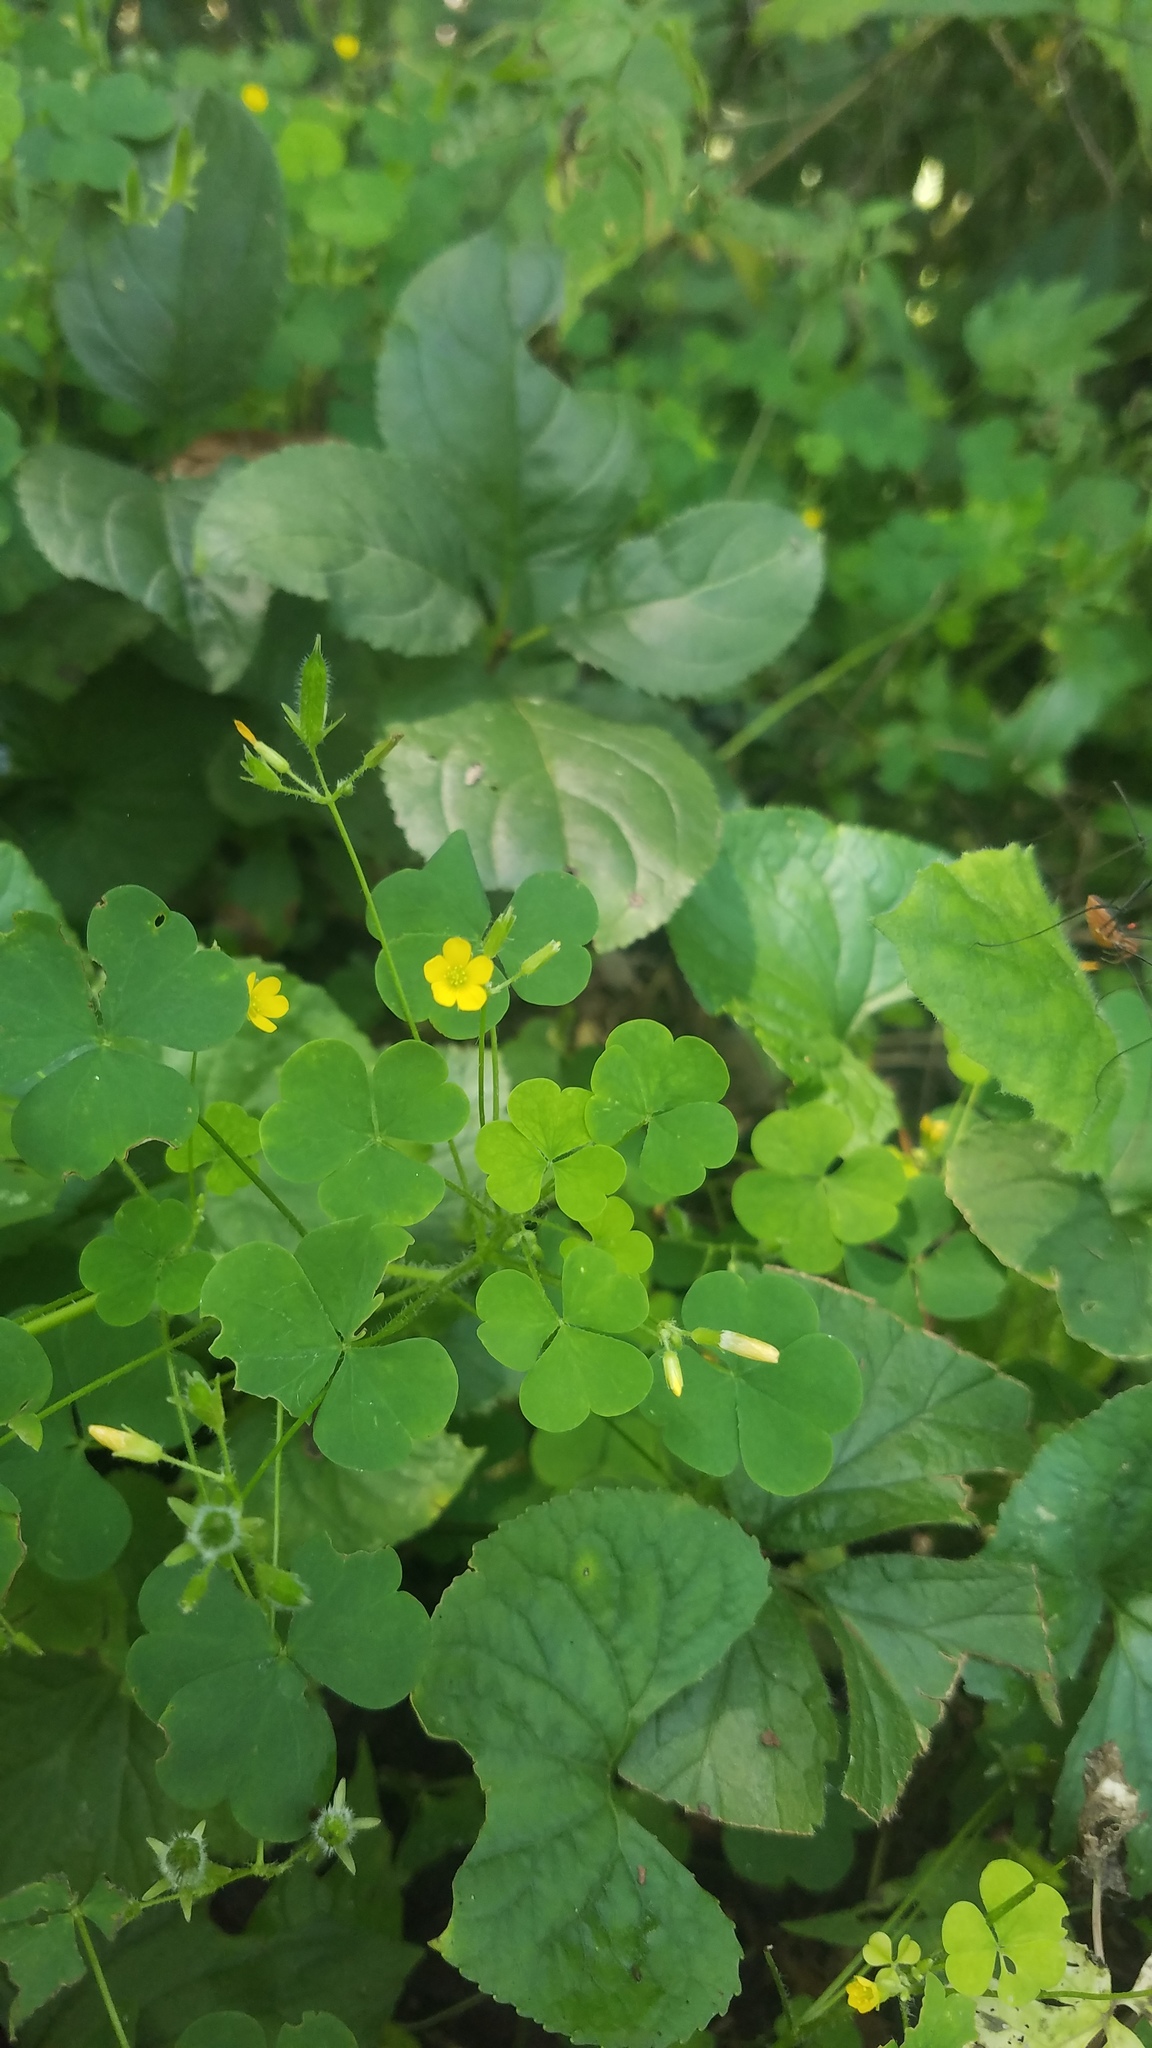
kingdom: Plantae
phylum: Tracheophyta
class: Magnoliopsida
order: Oxalidales
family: Oxalidaceae
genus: Oxalis
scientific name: Oxalis stricta
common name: Upright yellow-sorrel
